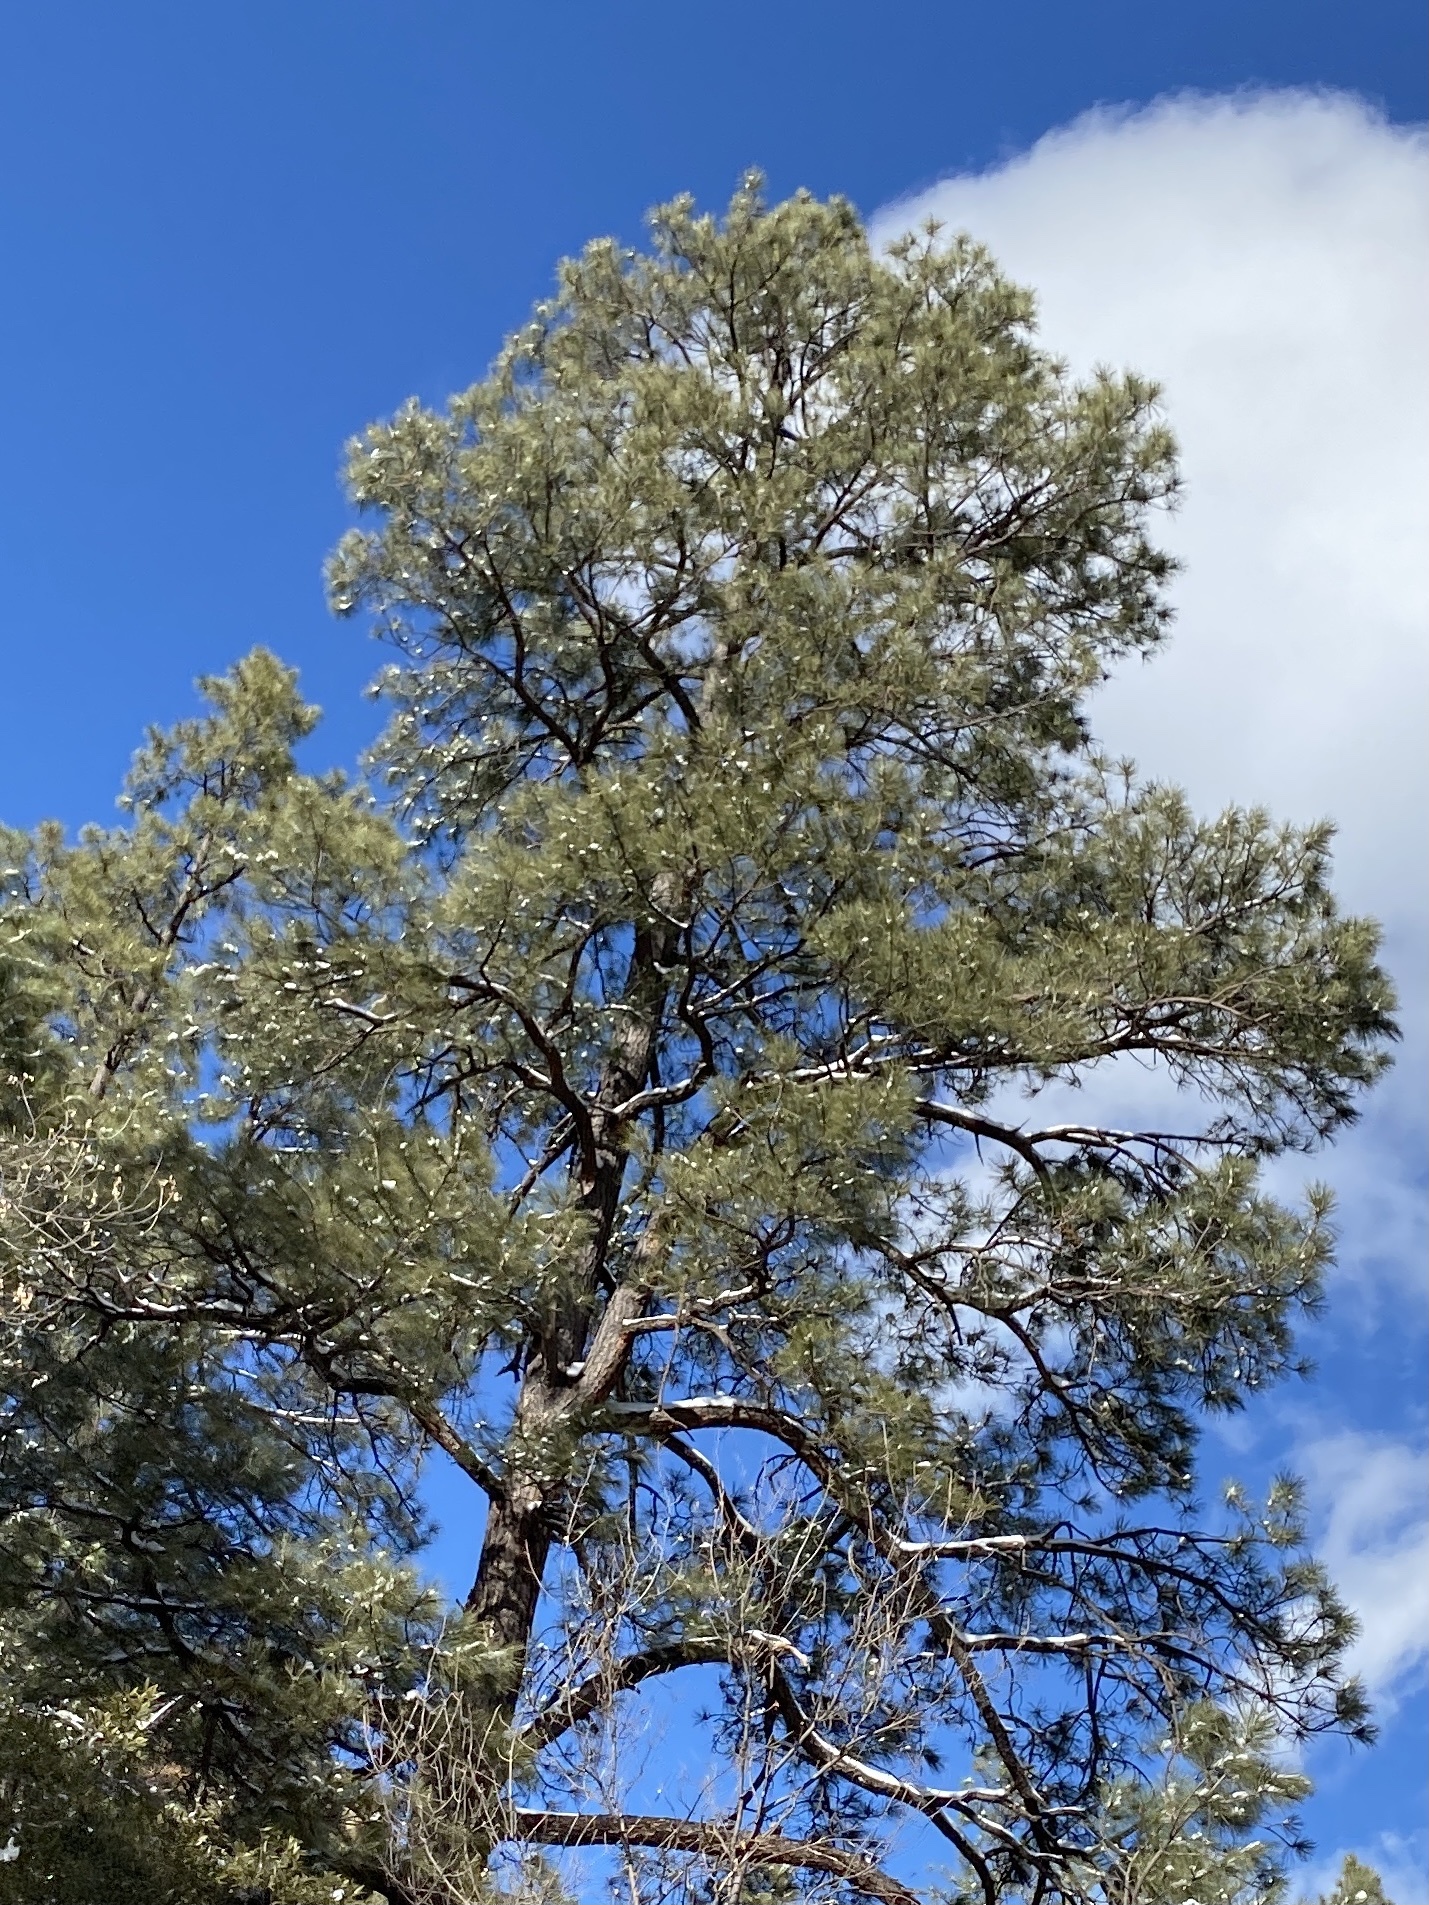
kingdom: Plantae
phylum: Tracheophyta
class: Pinopsida
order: Pinales
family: Pinaceae
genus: Pinus
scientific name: Pinus ponderosa
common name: Western yellow-pine
